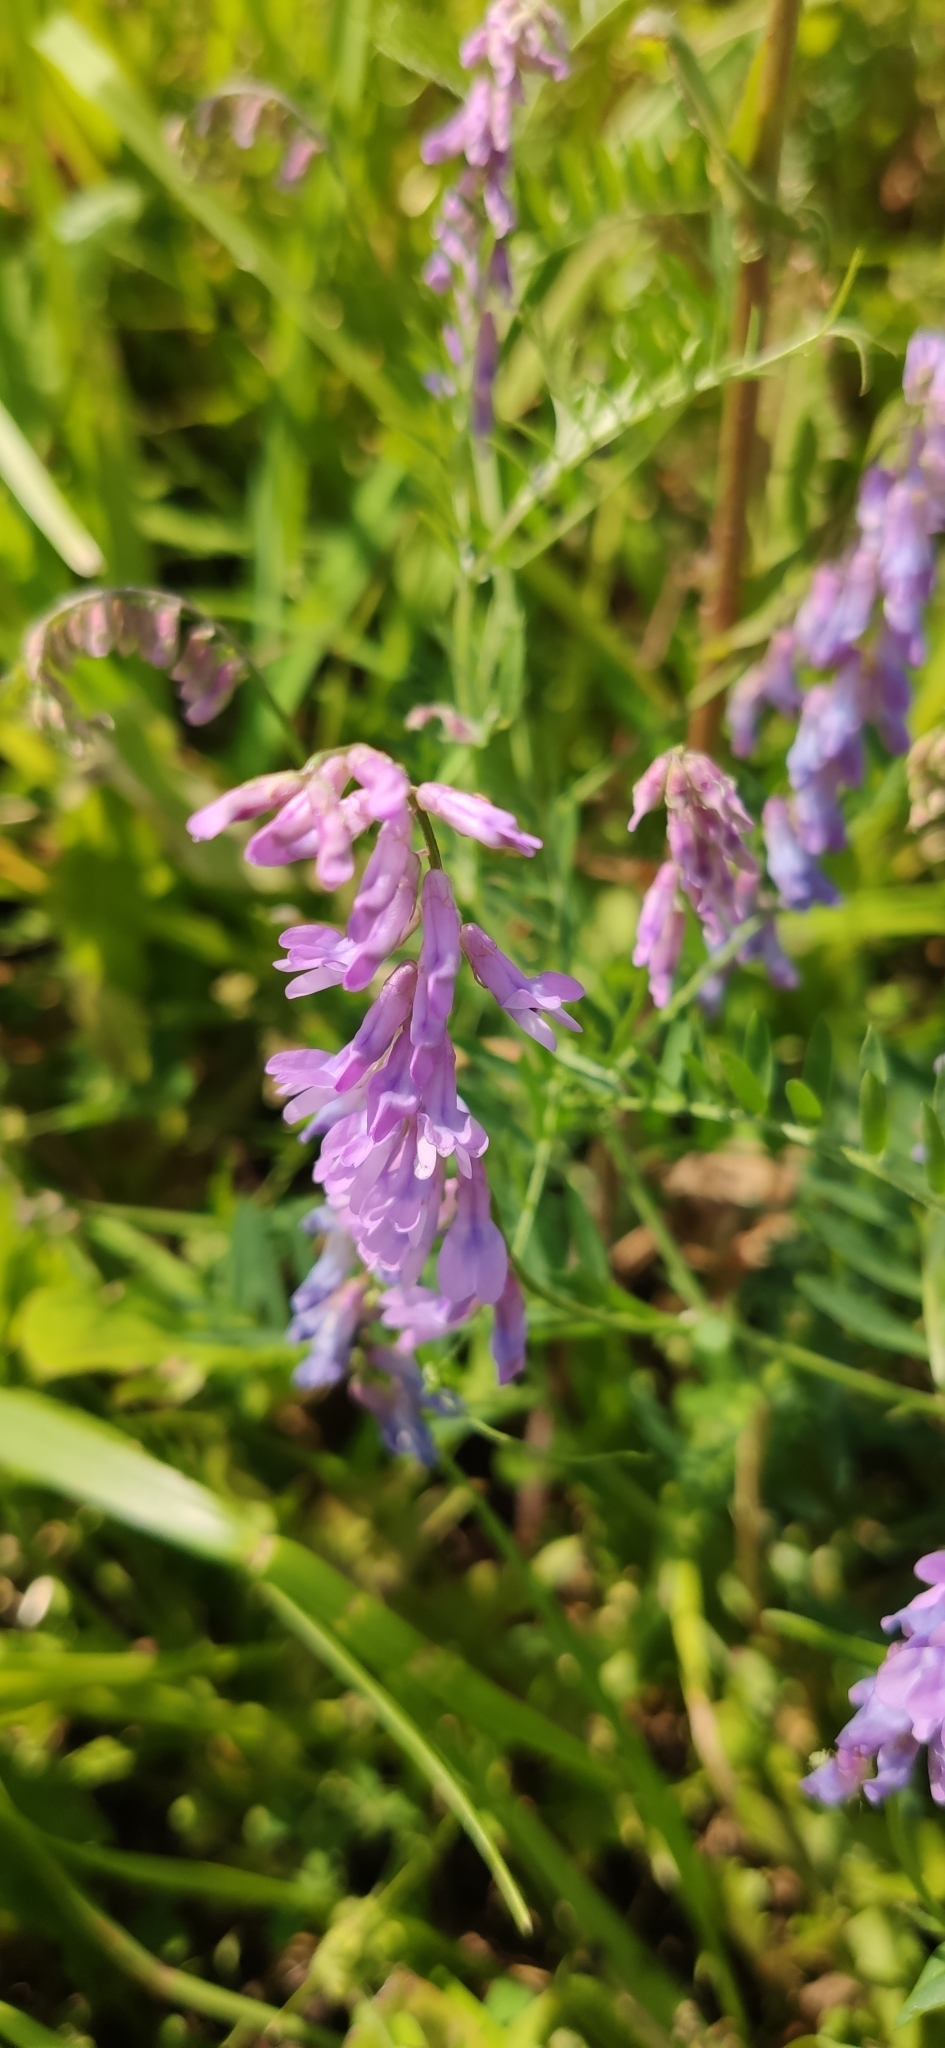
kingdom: Plantae
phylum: Tracheophyta
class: Magnoliopsida
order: Fabales
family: Fabaceae
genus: Vicia
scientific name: Vicia cracca
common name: Bird vetch
